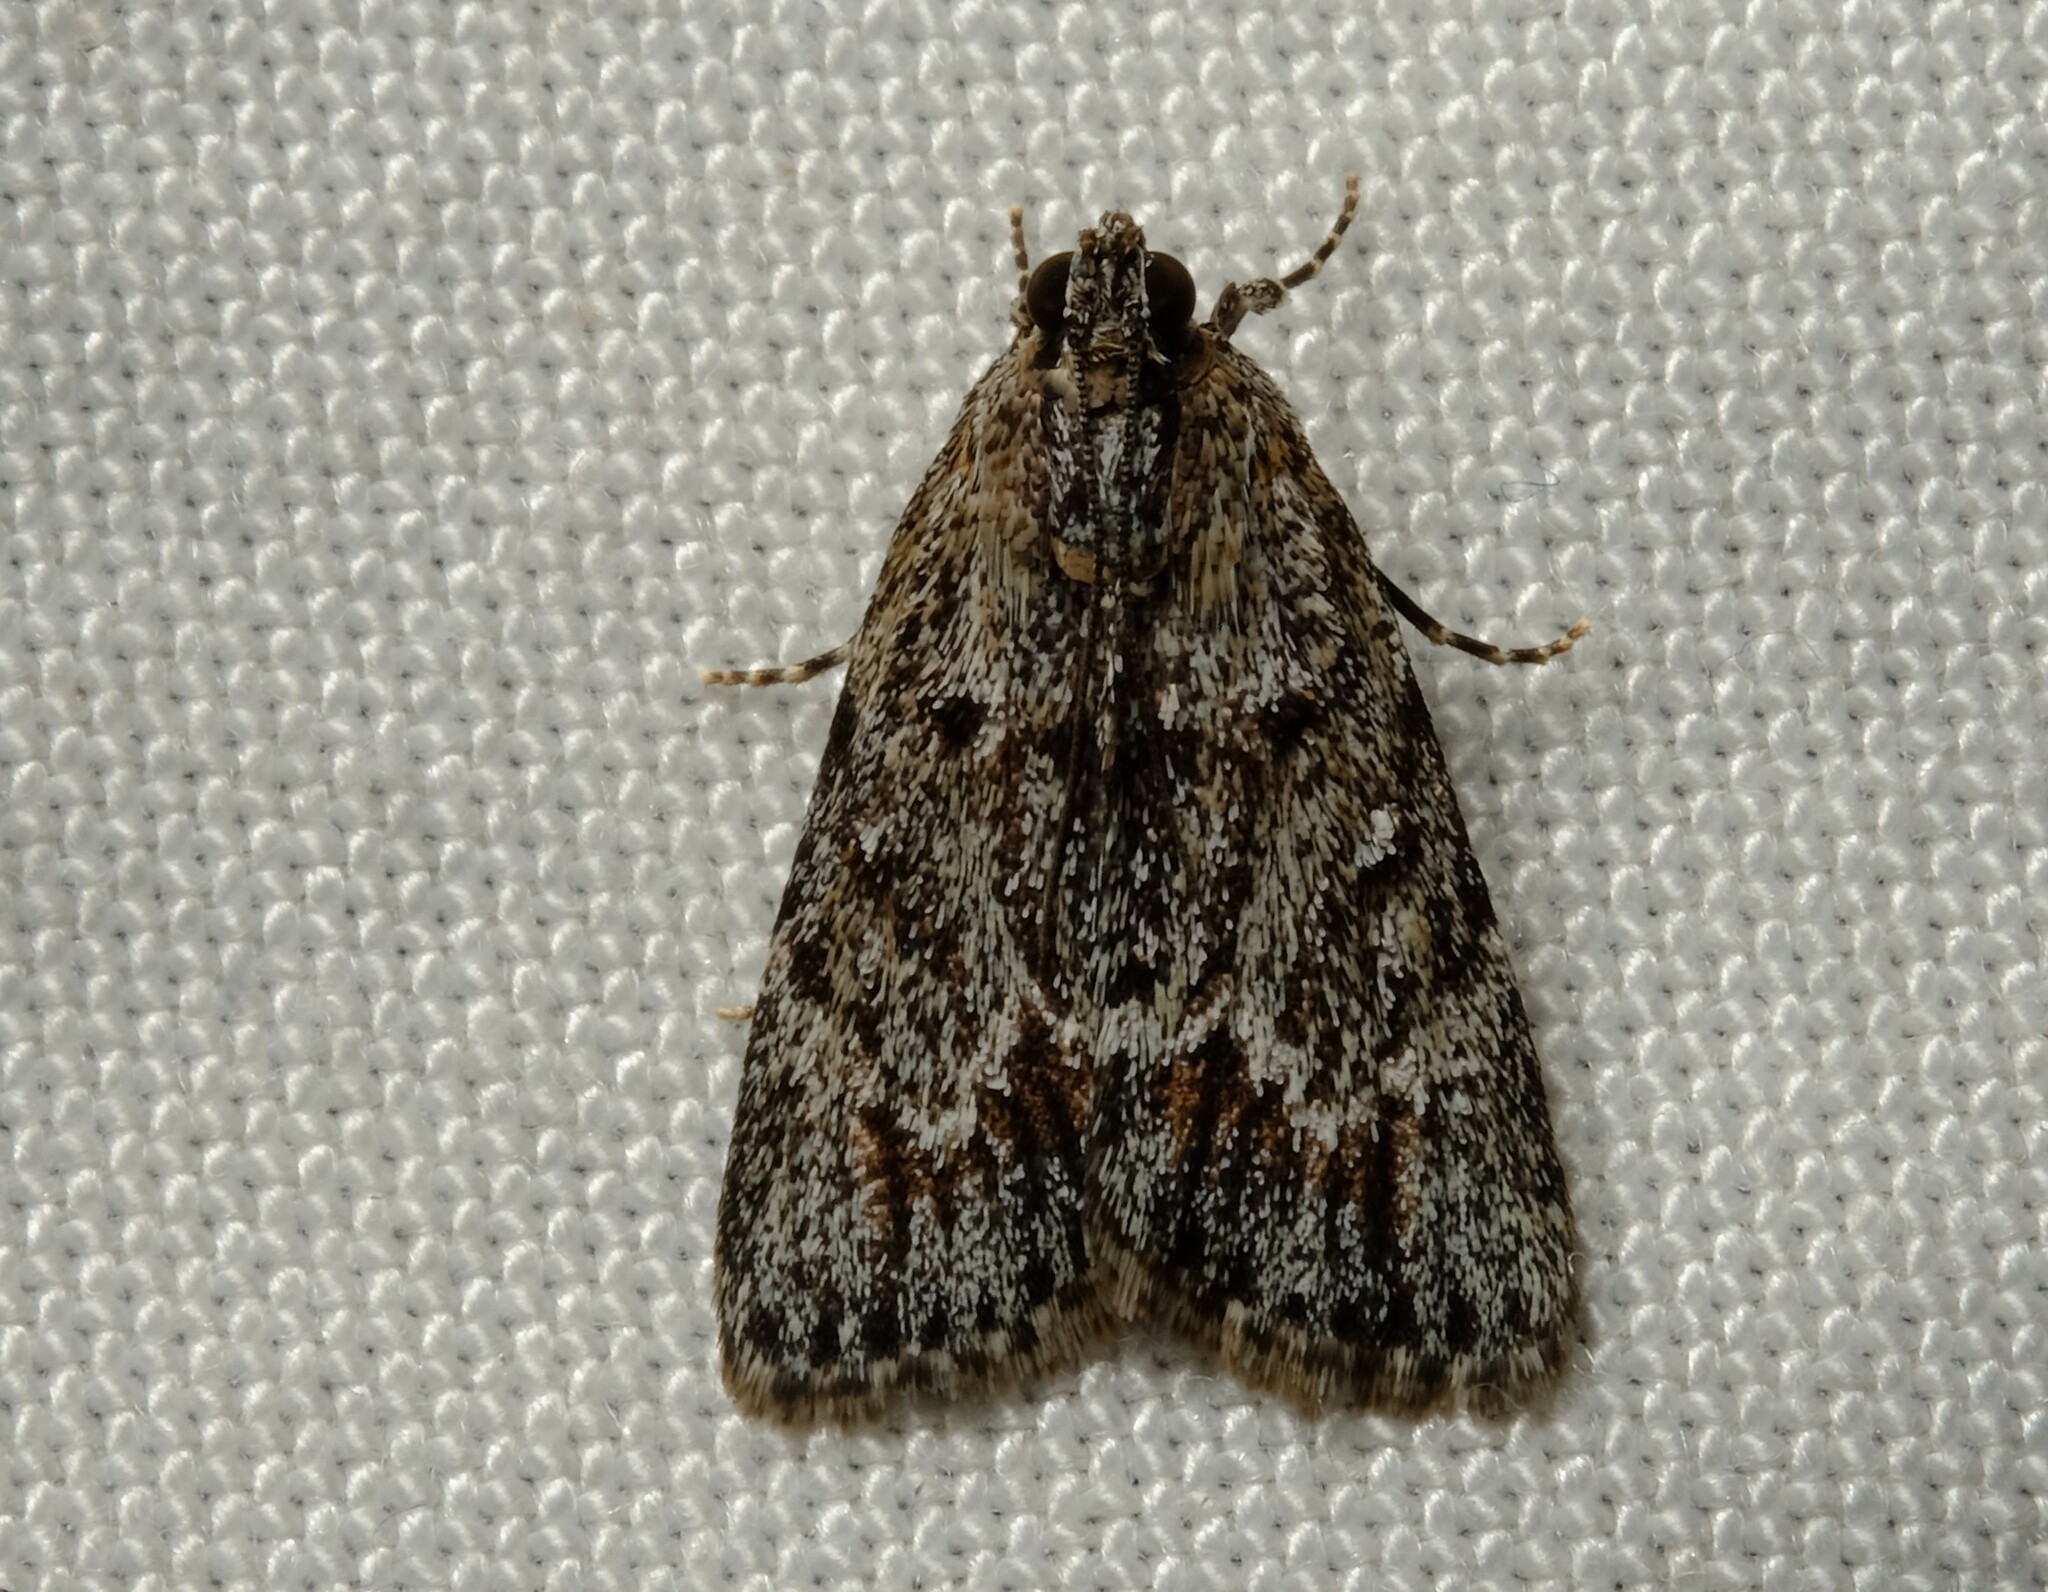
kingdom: Animalia
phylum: Arthropoda
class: Insecta
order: Lepidoptera
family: Pyralidae
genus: Spectrotrota
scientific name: Spectrotrota fimbrialis
